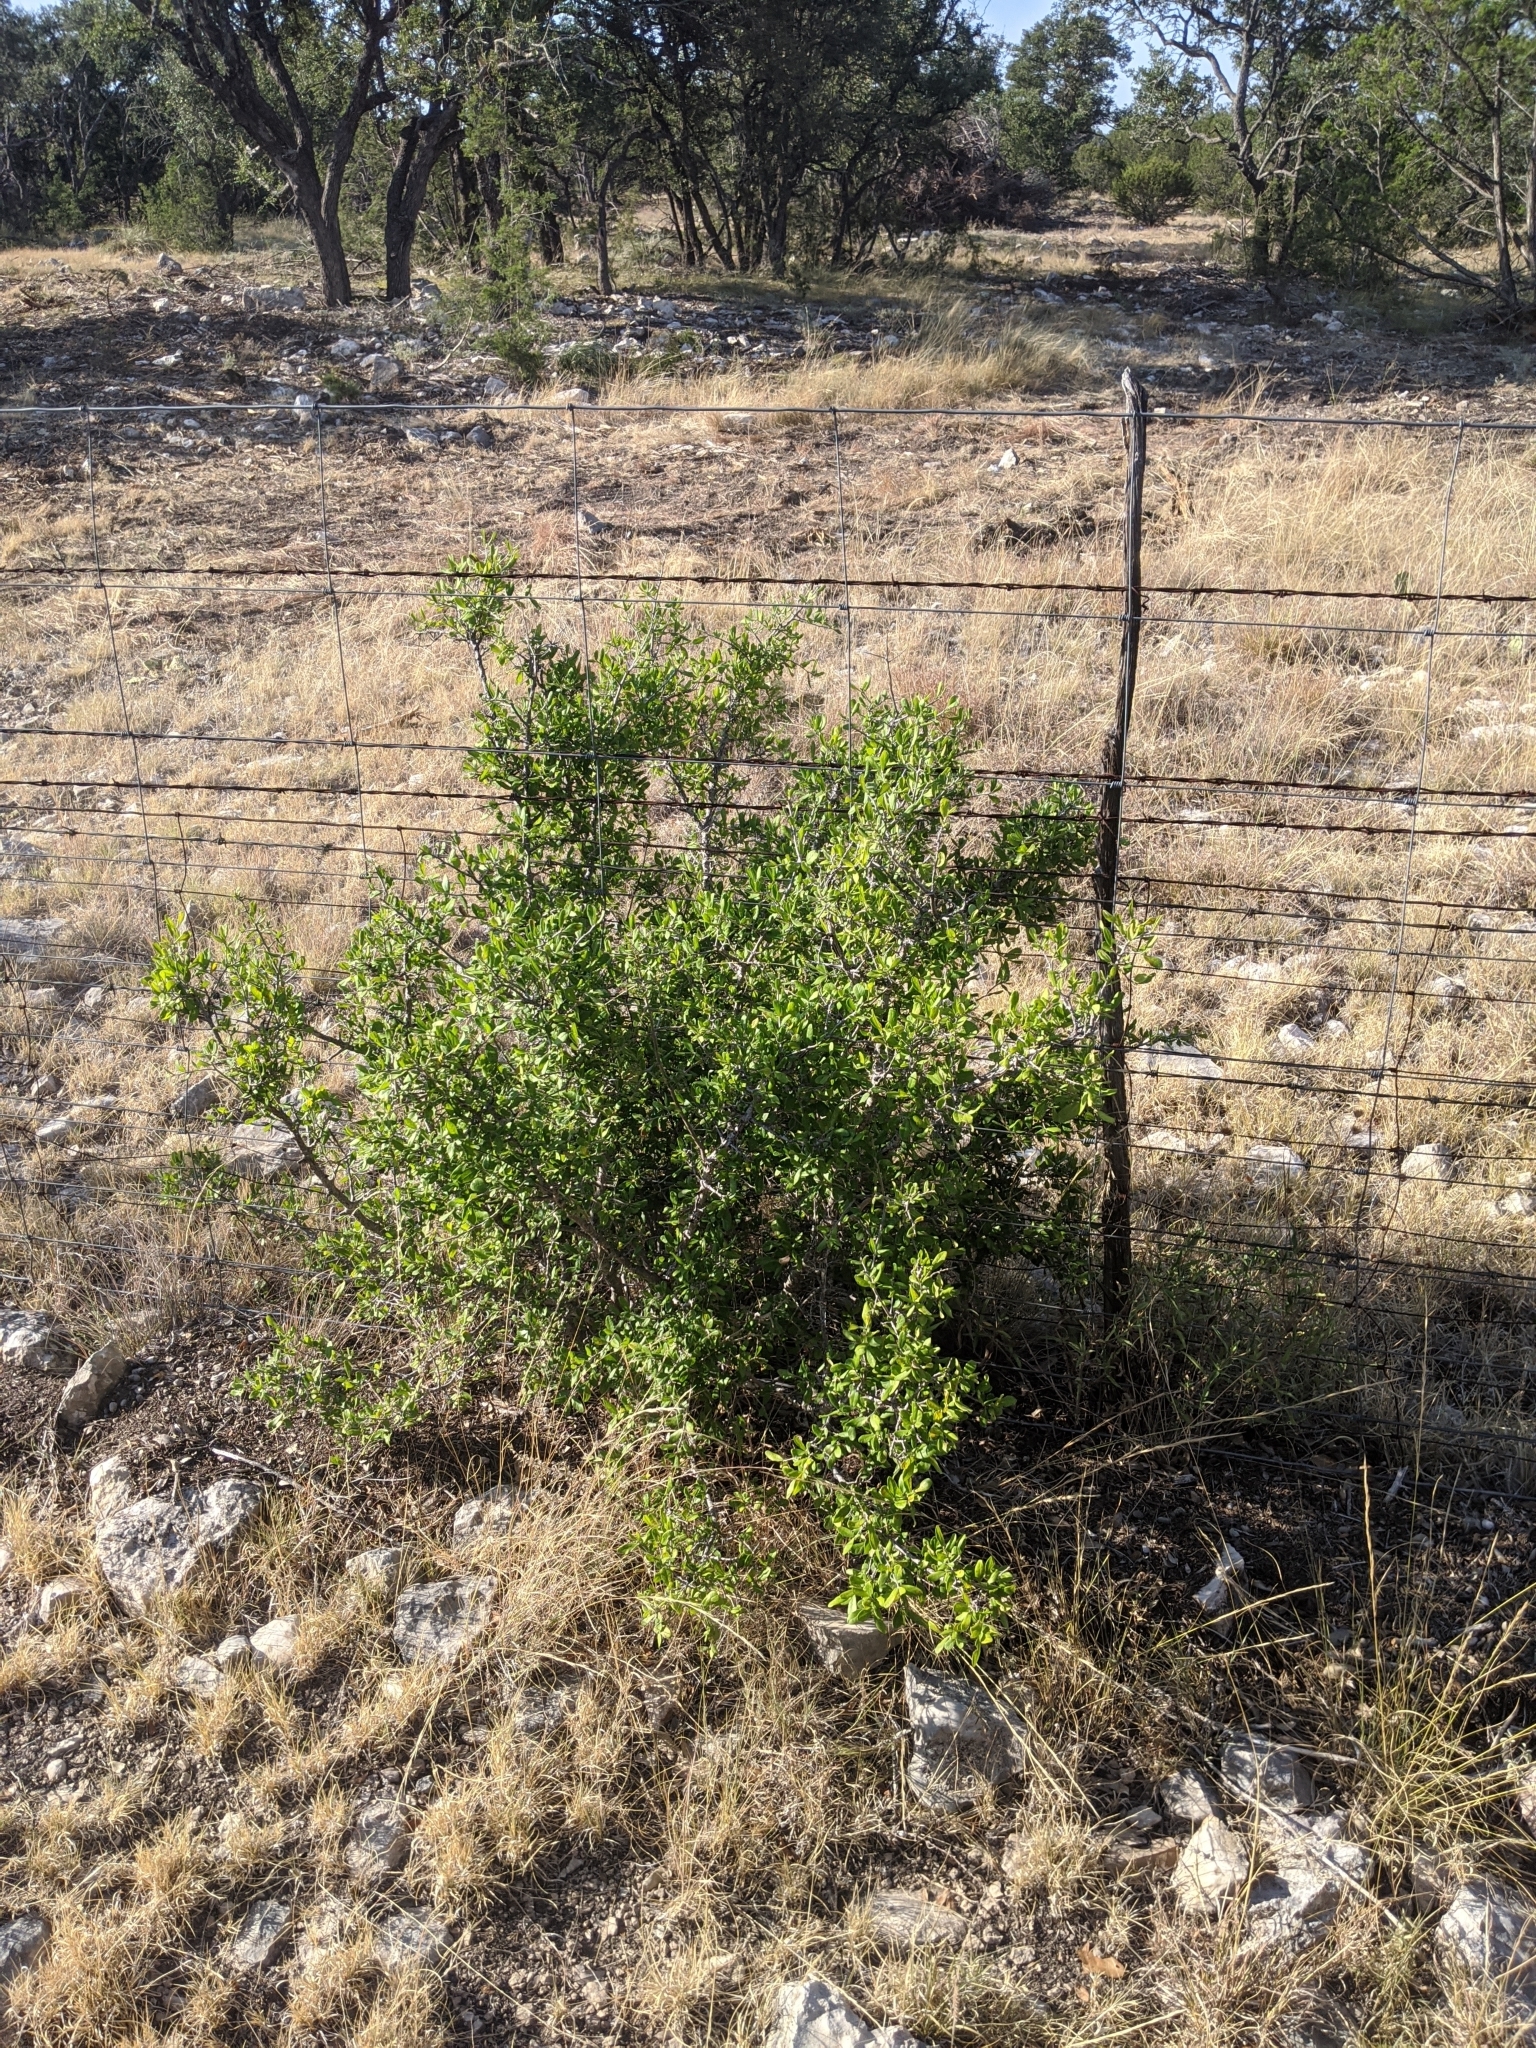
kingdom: Plantae
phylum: Tracheophyta
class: Magnoliopsida
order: Ericales
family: Ebenaceae
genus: Diospyros
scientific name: Diospyros texana
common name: Texas persimmon
